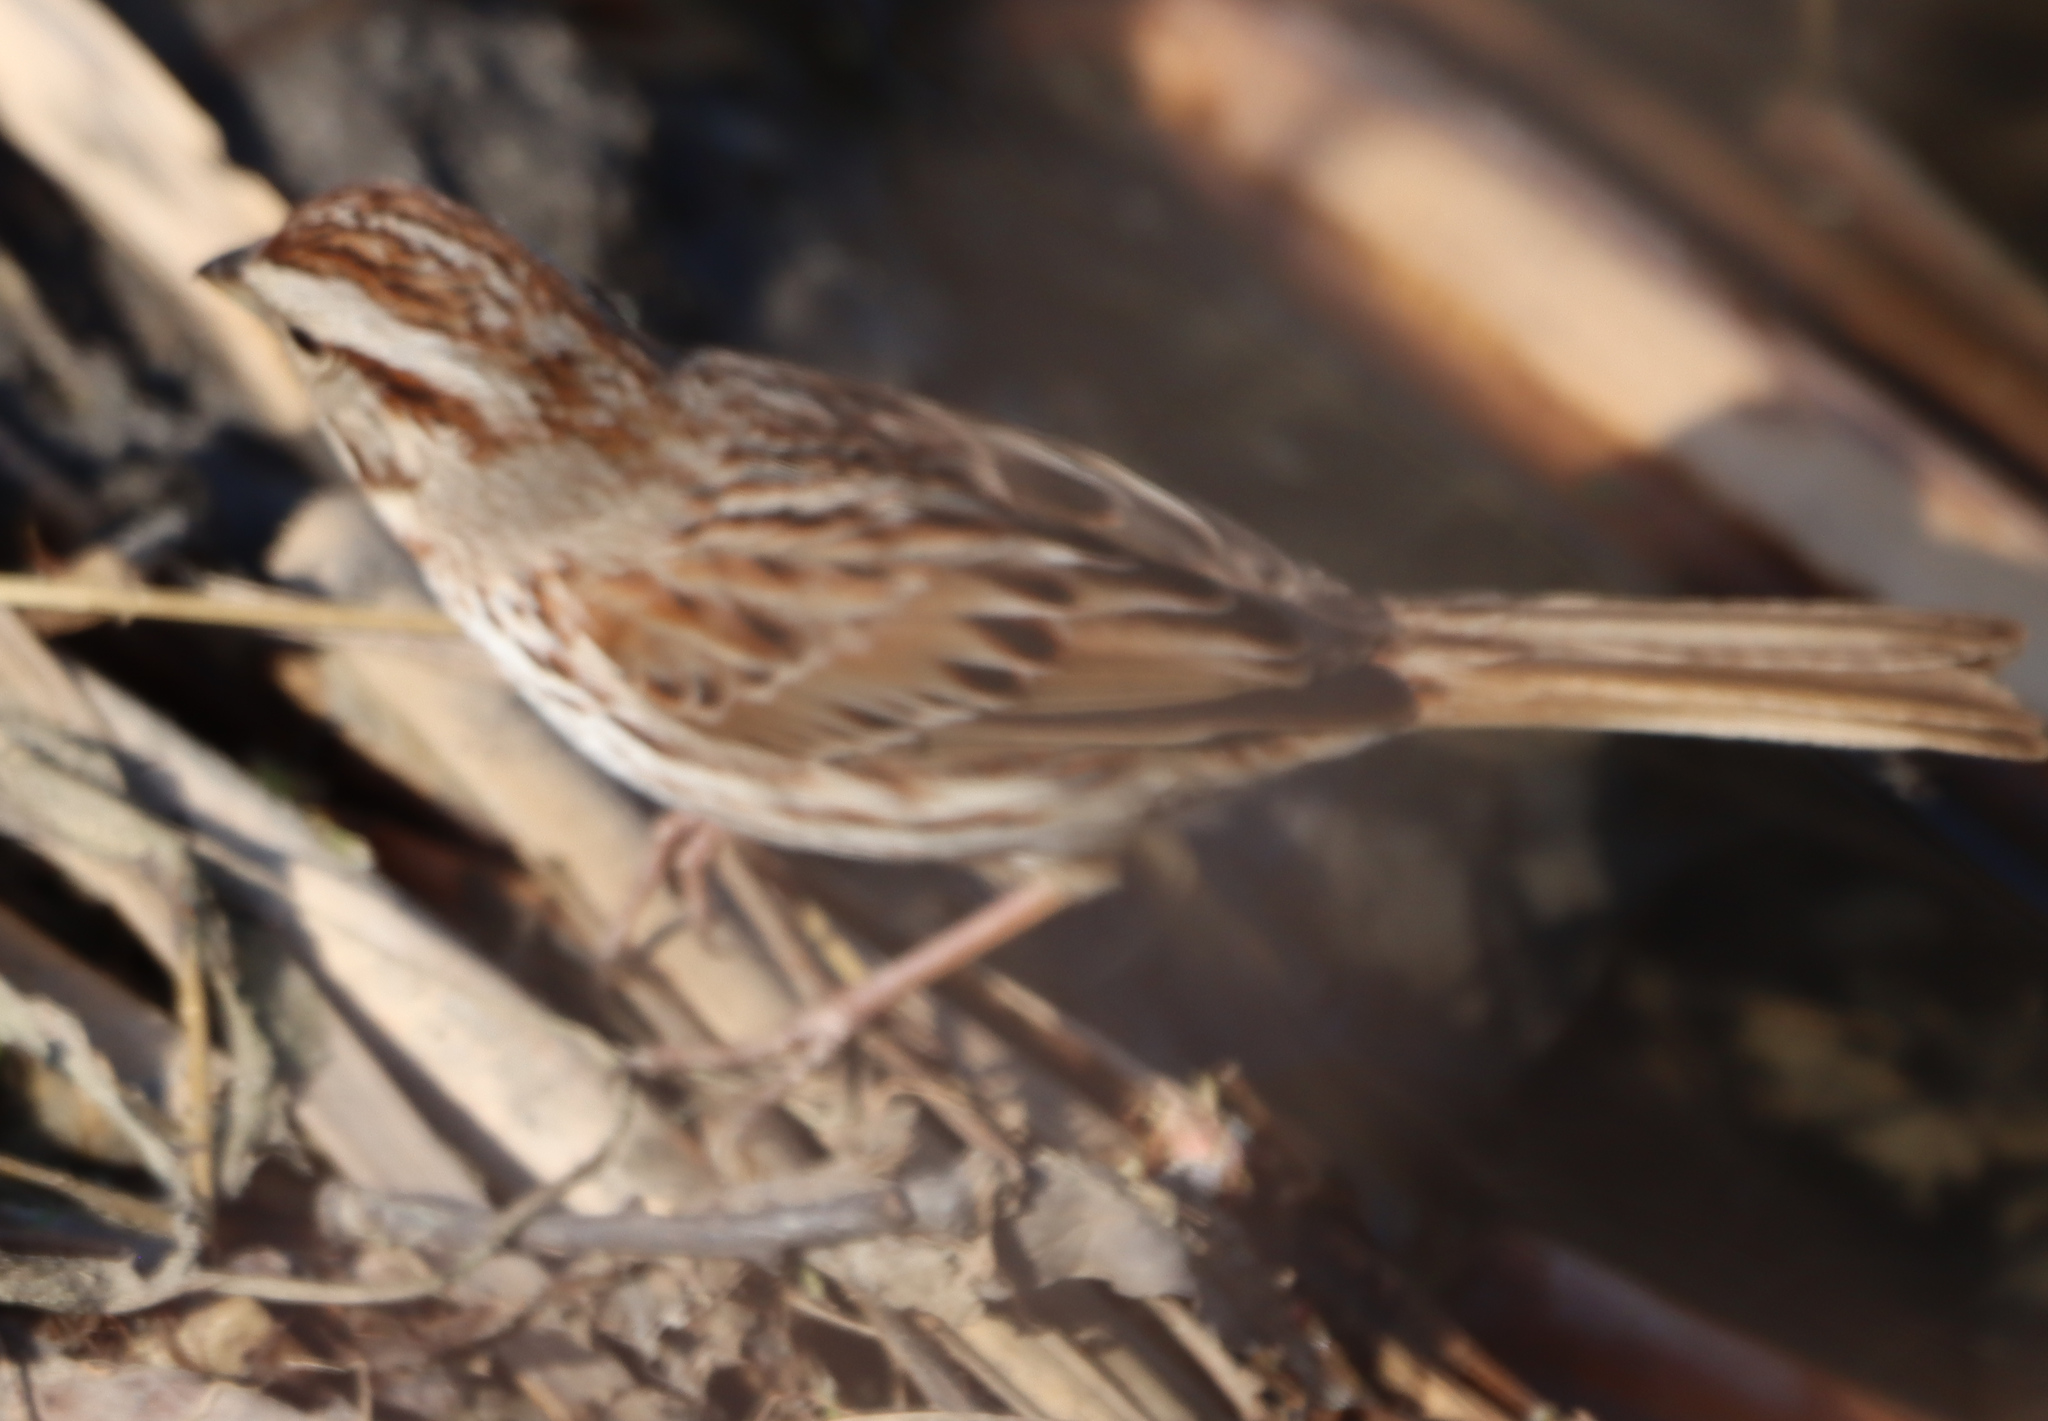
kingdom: Animalia
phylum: Chordata
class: Aves
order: Passeriformes
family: Passerellidae
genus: Melospiza
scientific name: Melospiza melodia
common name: Song sparrow
